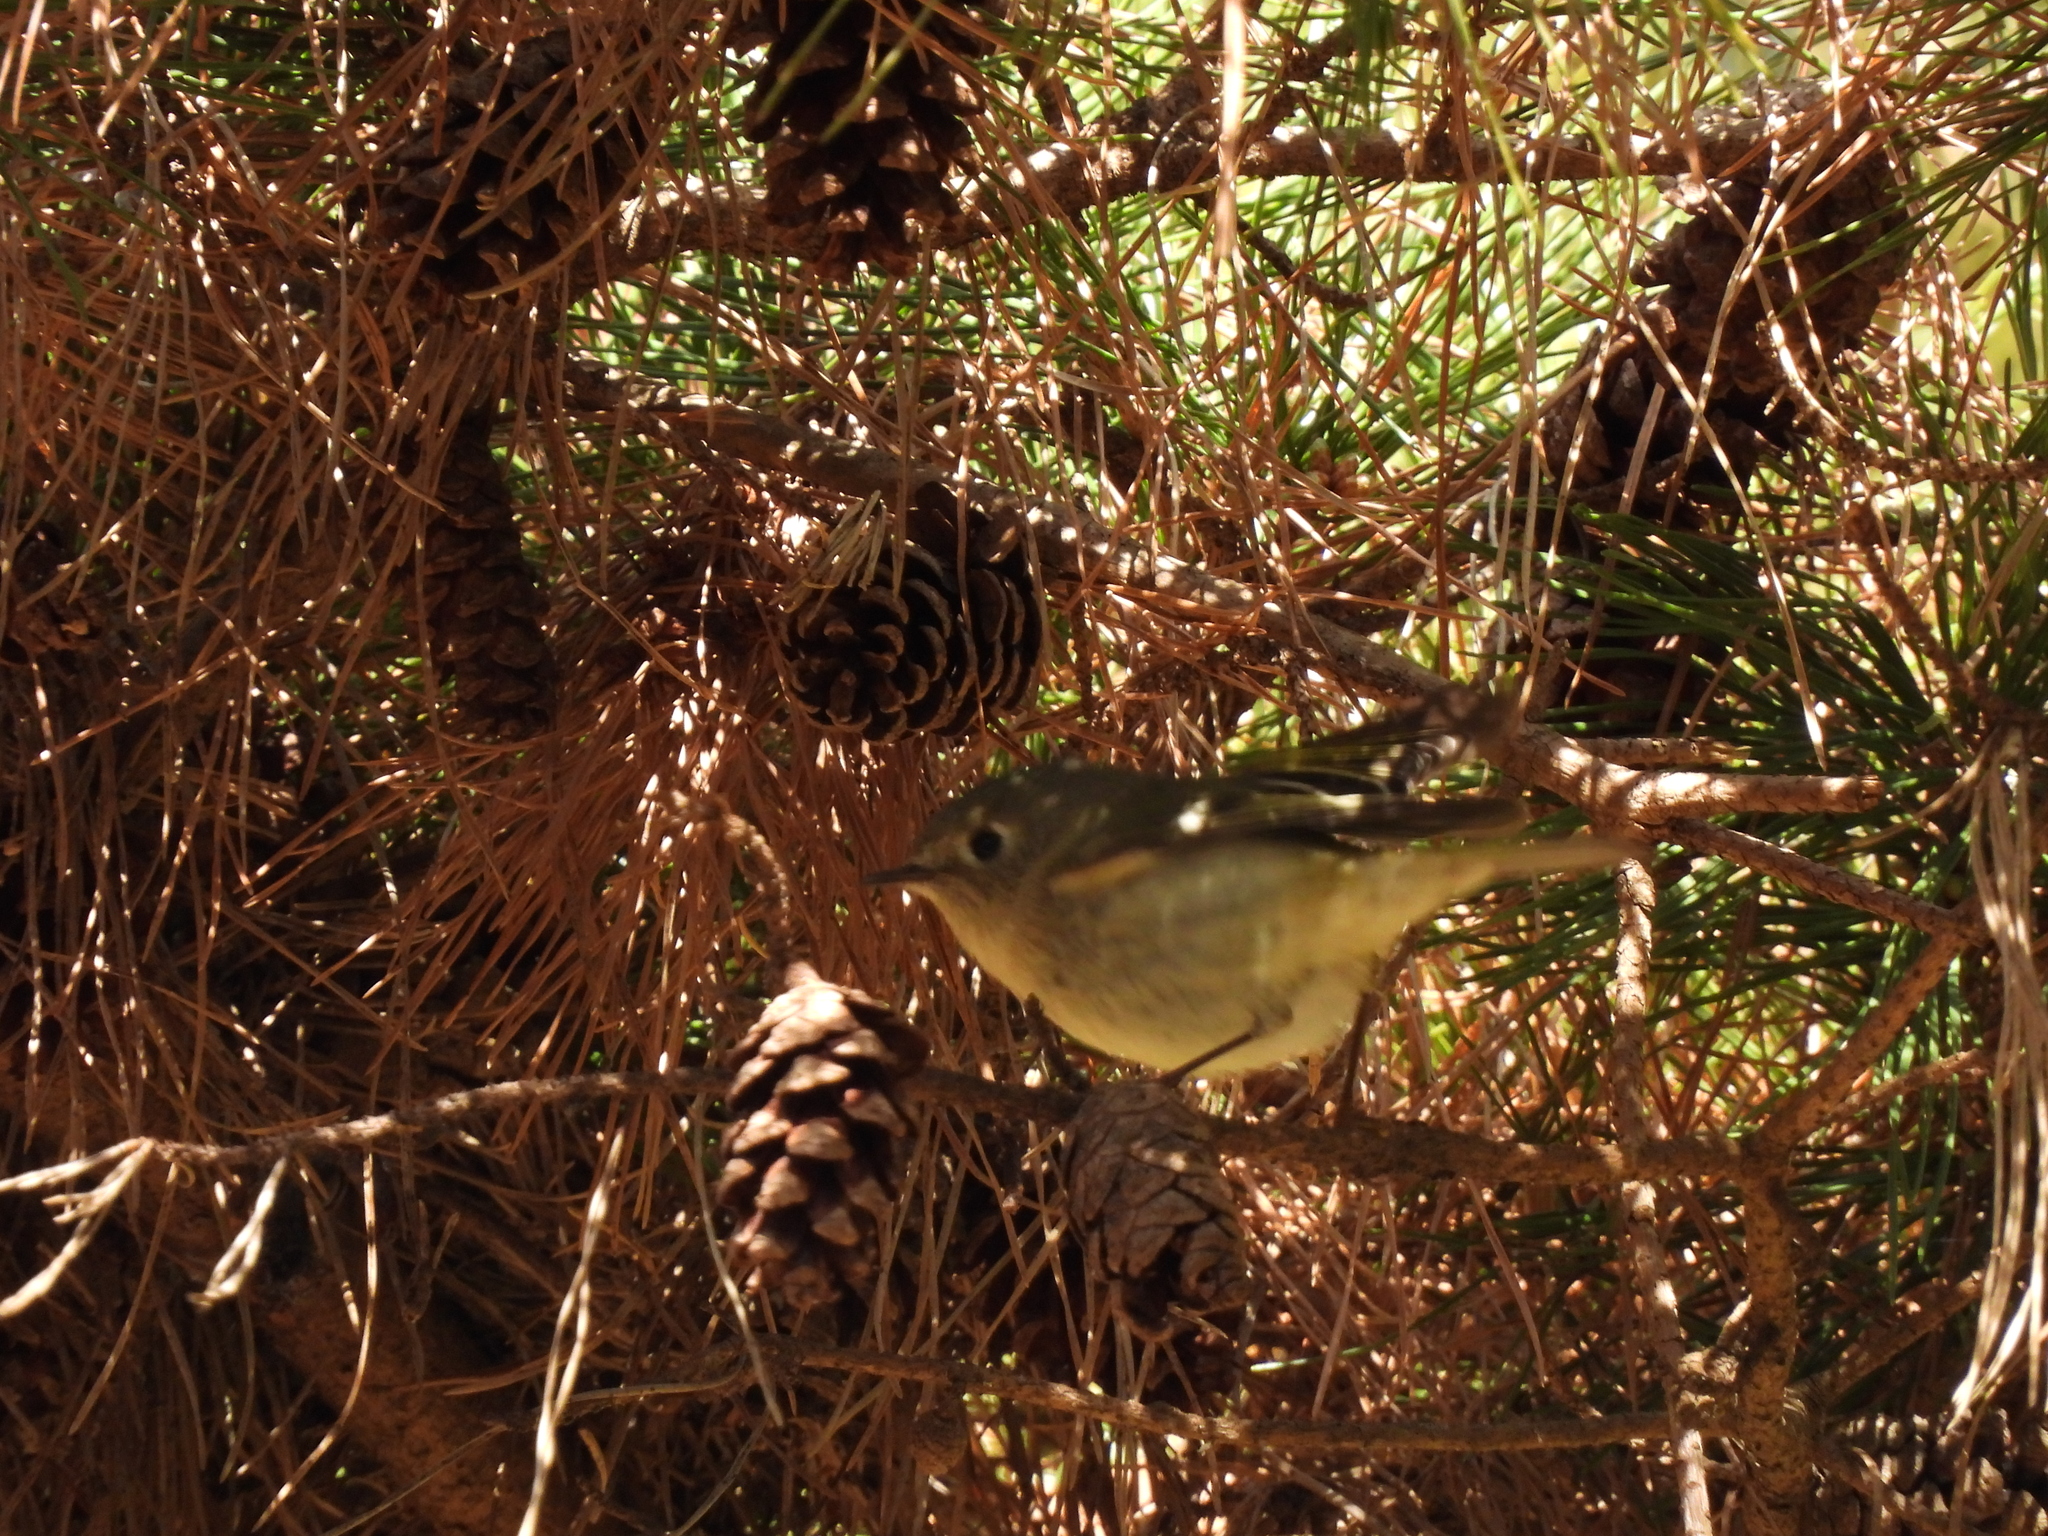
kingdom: Animalia
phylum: Chordata
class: Aves
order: Passeriformes
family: Regulidae
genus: Regulus
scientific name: Regulus calendula
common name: Ruby-crowned kinglet
